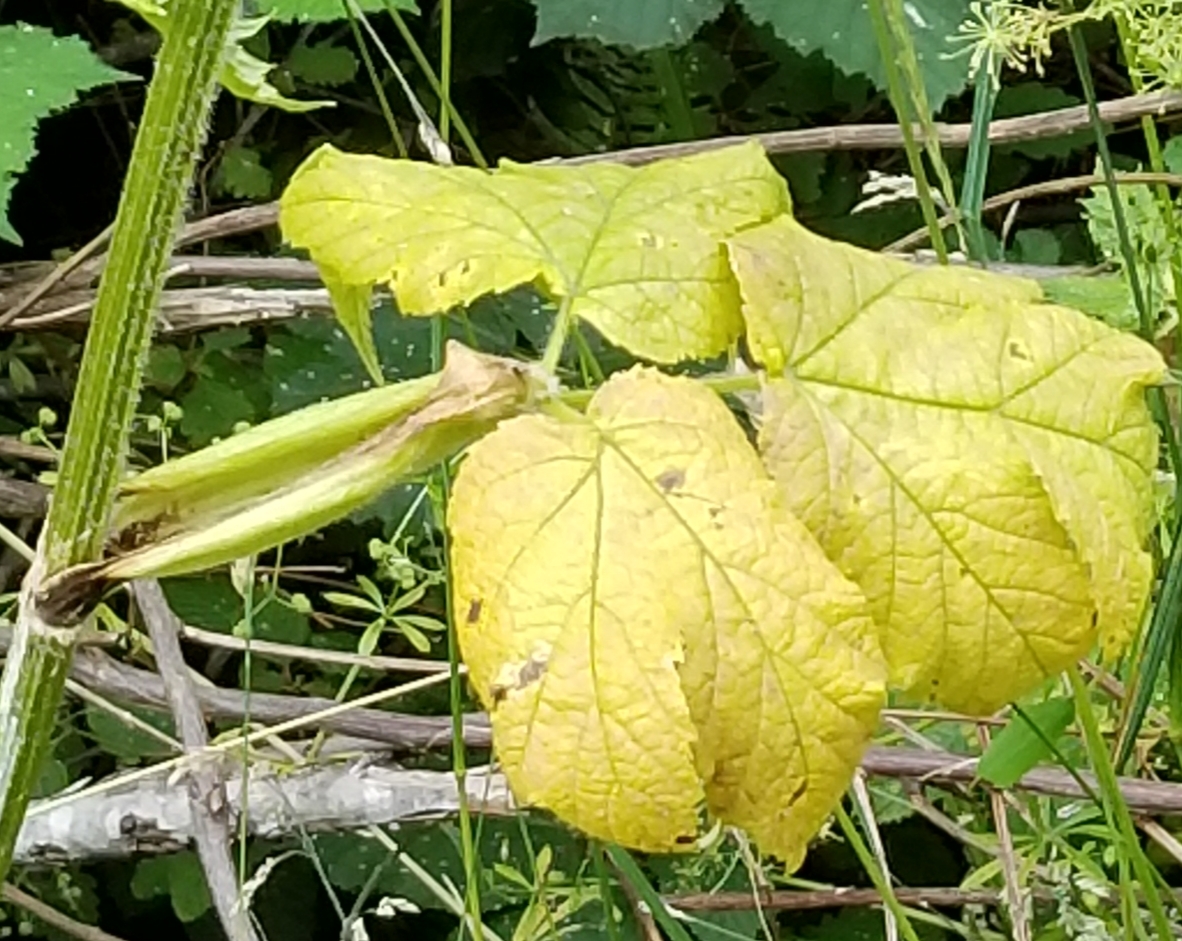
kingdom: Plantae
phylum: Tracheophyta
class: Magnoliopsida
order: Apiales
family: Apiaceae
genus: Heracleum
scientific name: Heracleum maximum
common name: American cow parsnip
